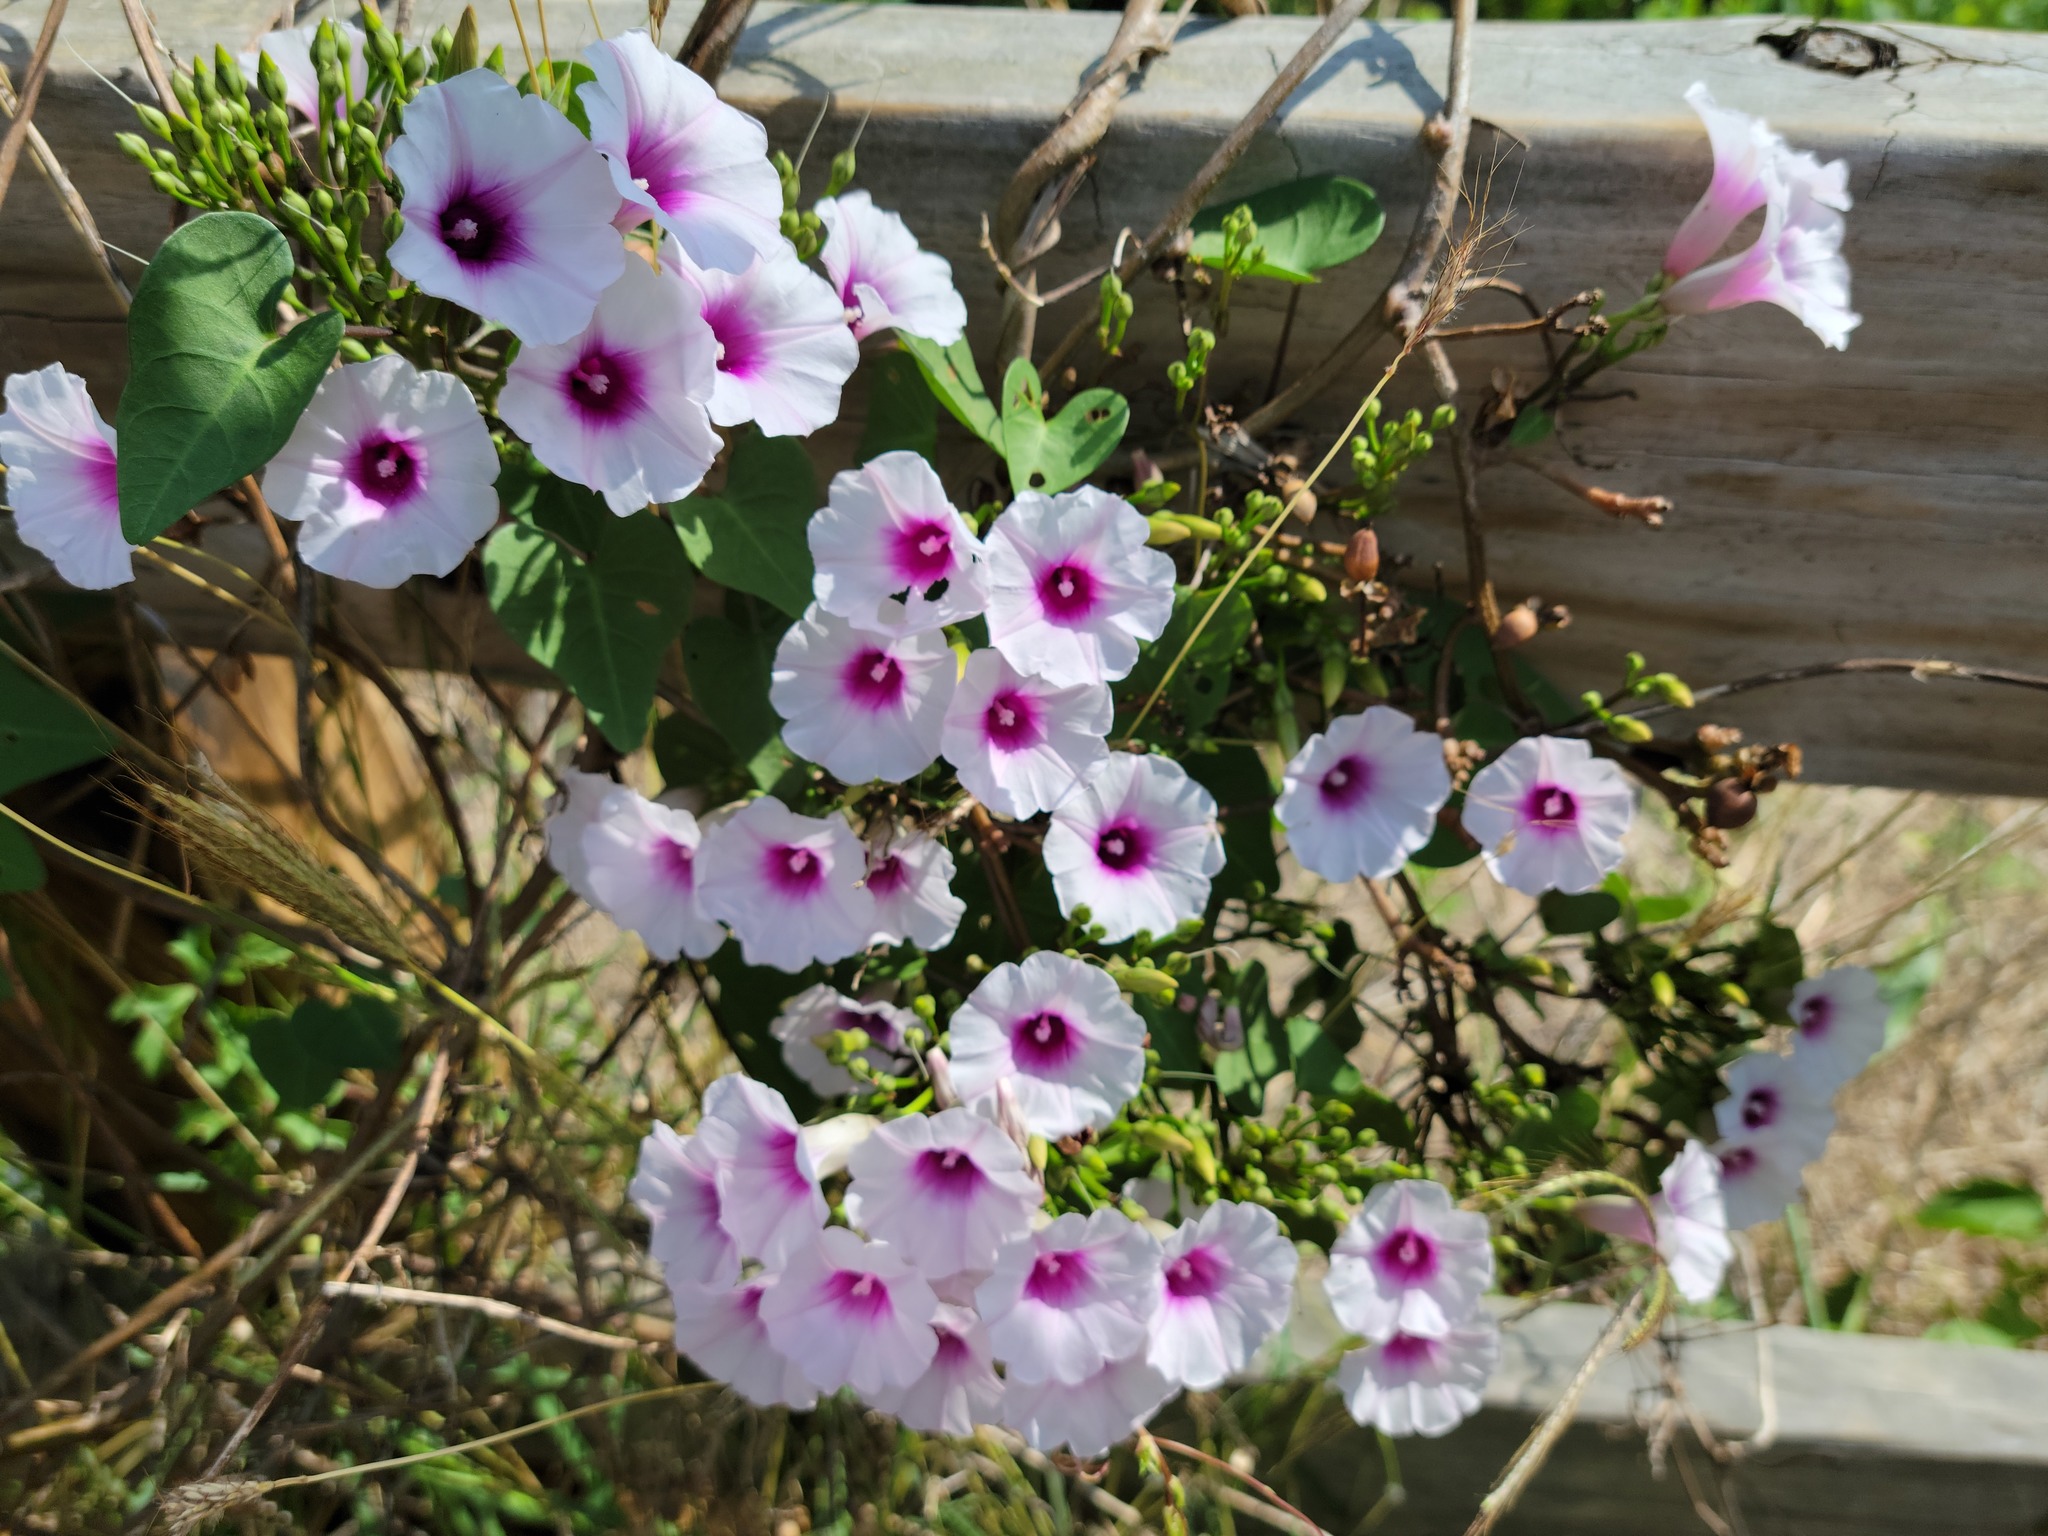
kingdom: Plantae
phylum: Tracheophyta
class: Magnoliopsida
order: Solanales
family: Convolvulaceae
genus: Ipomoea
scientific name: Ipomoea amnicola
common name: Redcenter morning-glory
